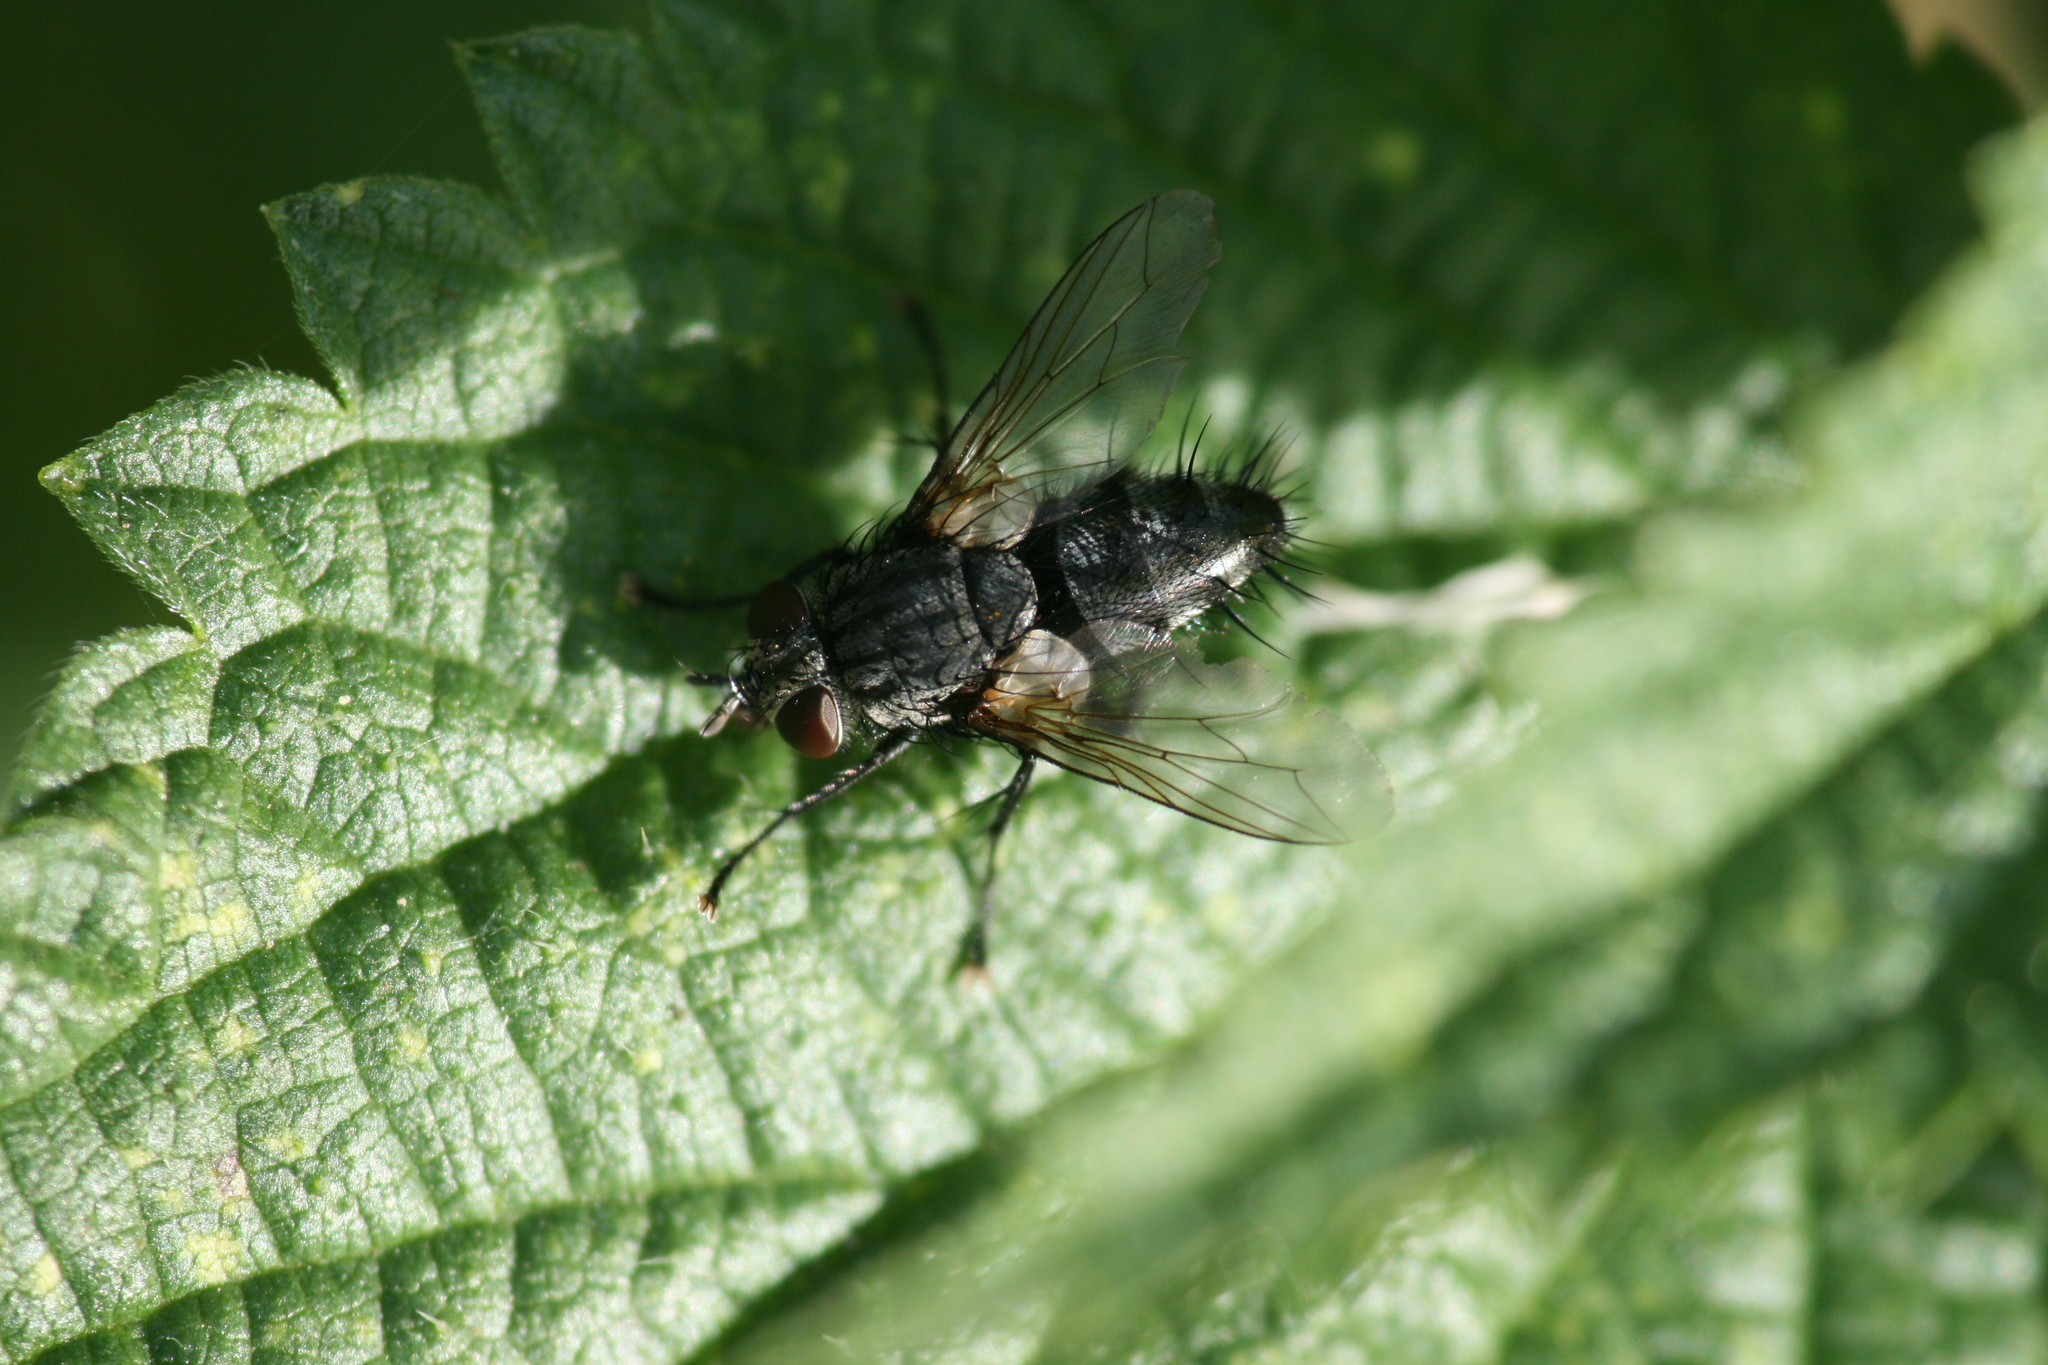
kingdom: Animalia
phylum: Arthropoda
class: Insecta
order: Diptera
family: Tachinidae
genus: Voria
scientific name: Voria ruralis
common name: Parasitic fly
